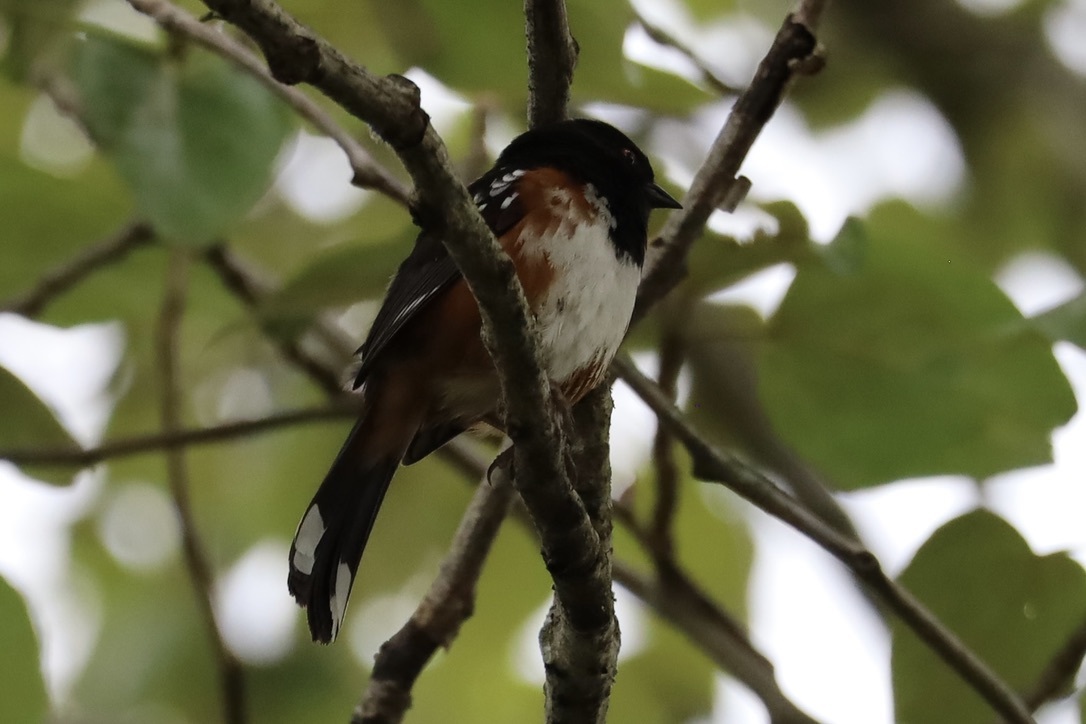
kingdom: Animalia
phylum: Chordata
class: Aves
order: Passeriformes
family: Passerellidae
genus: Pipilo
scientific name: Pipilo maculatus
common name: Spotted towhee
